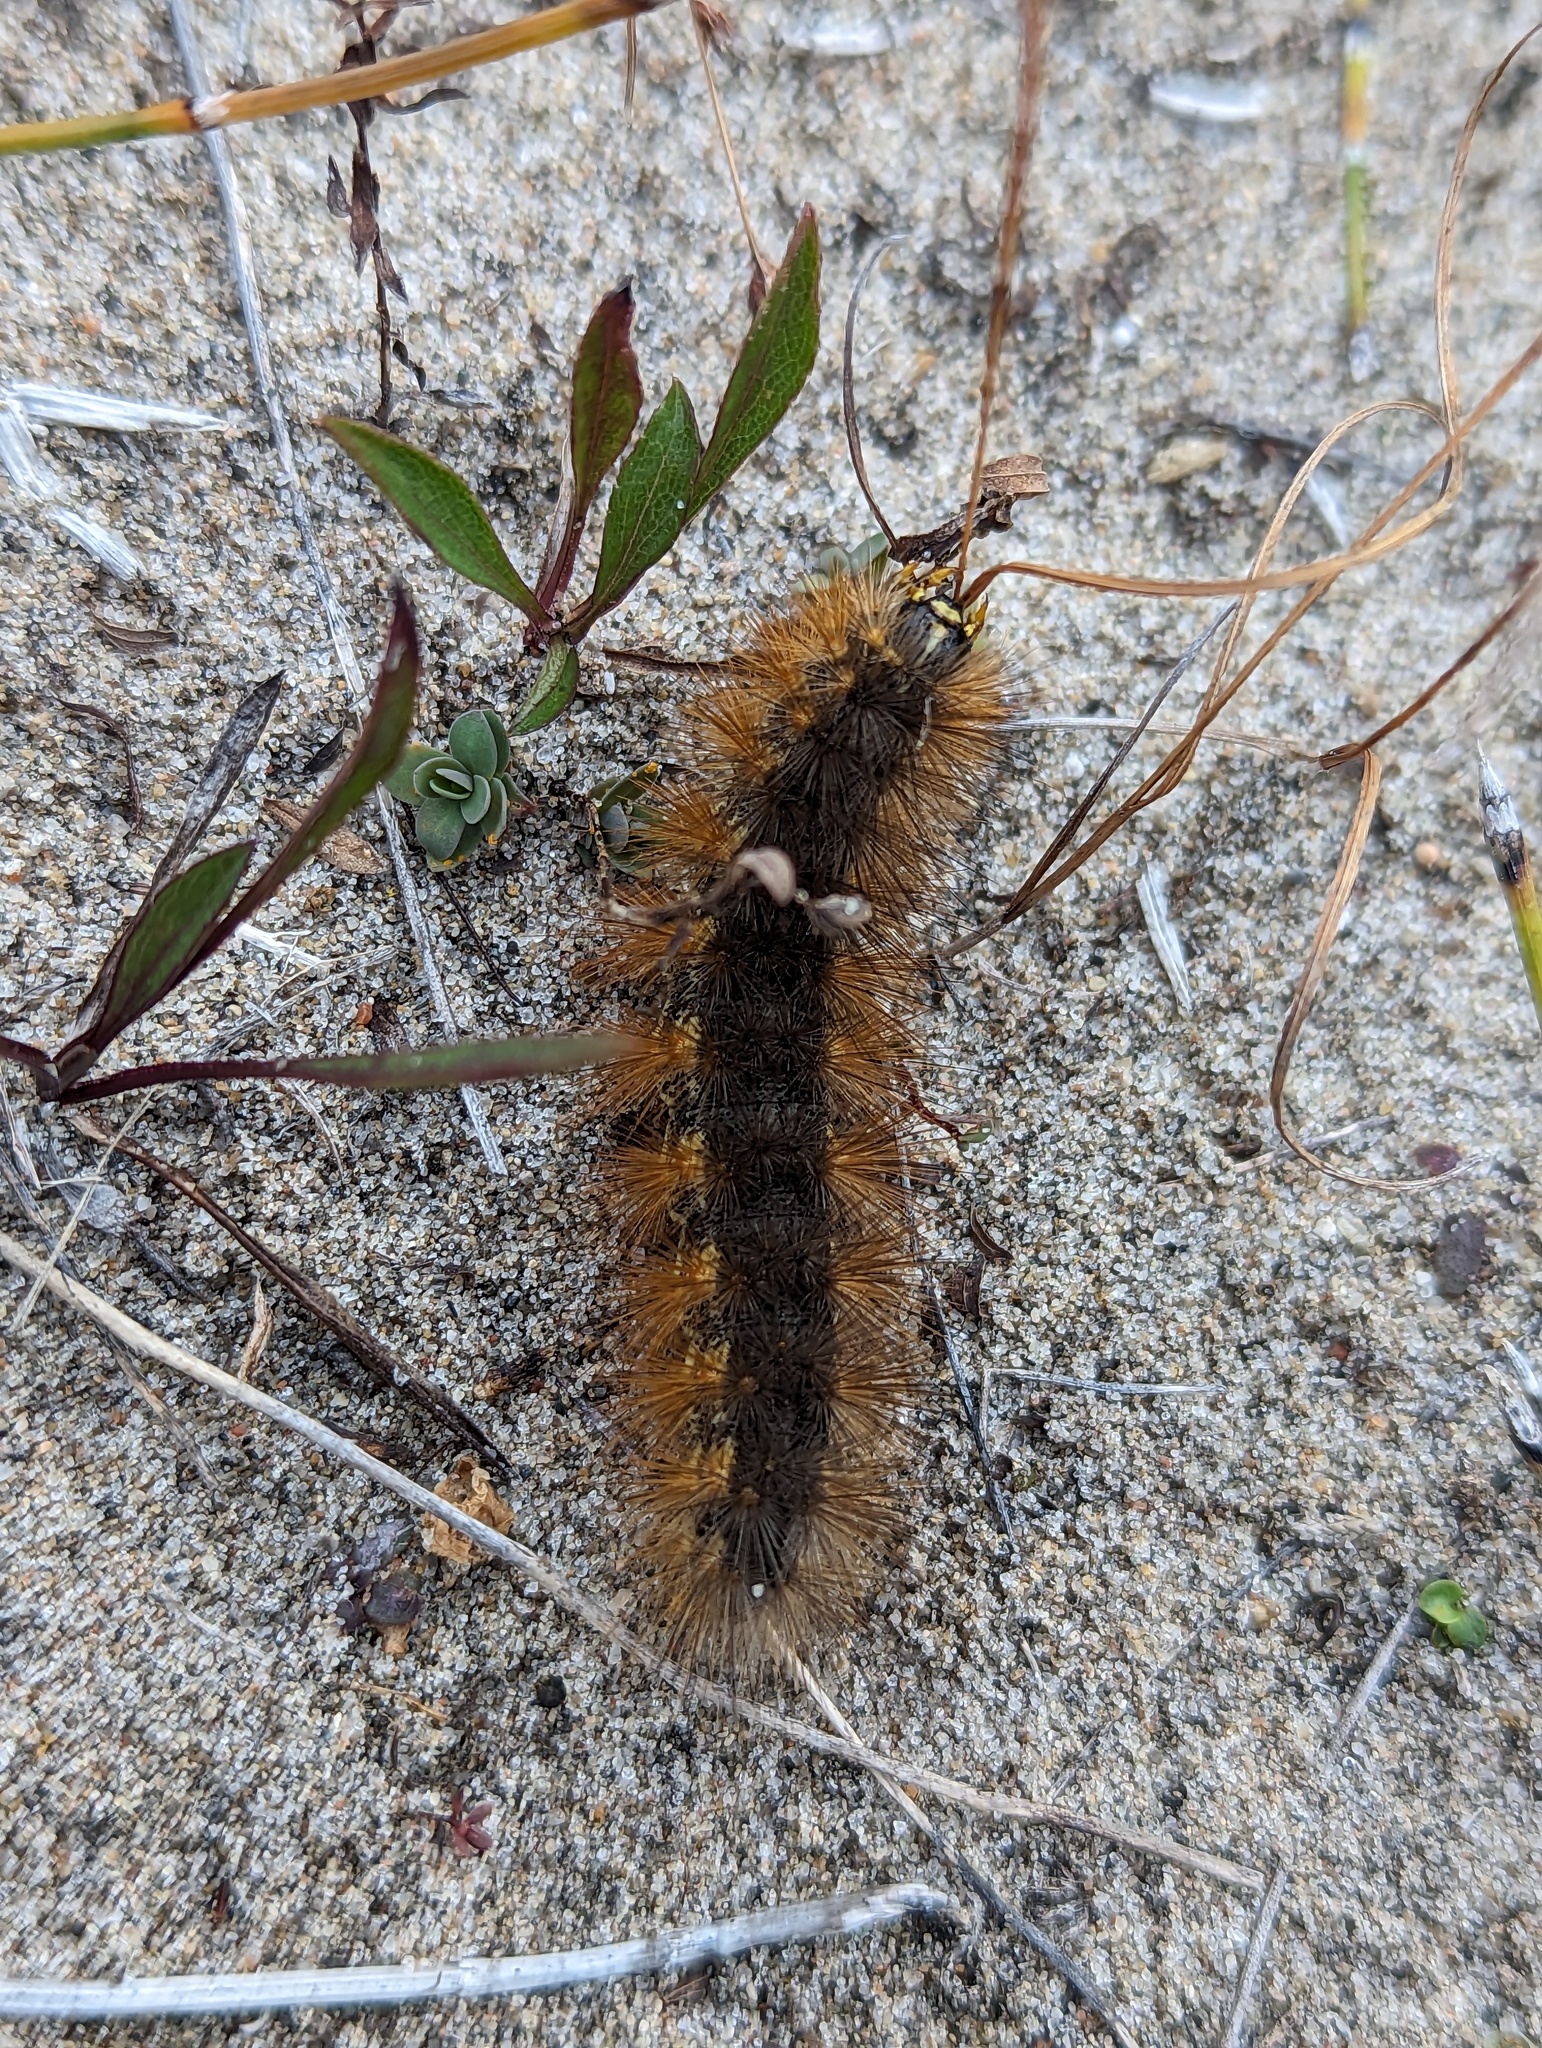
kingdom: Animalia
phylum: Arthropoda
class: Insecta
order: Lepidoptera
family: Erebidae
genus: Estigmene
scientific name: Estigmene acrea
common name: Salt marsh moth
